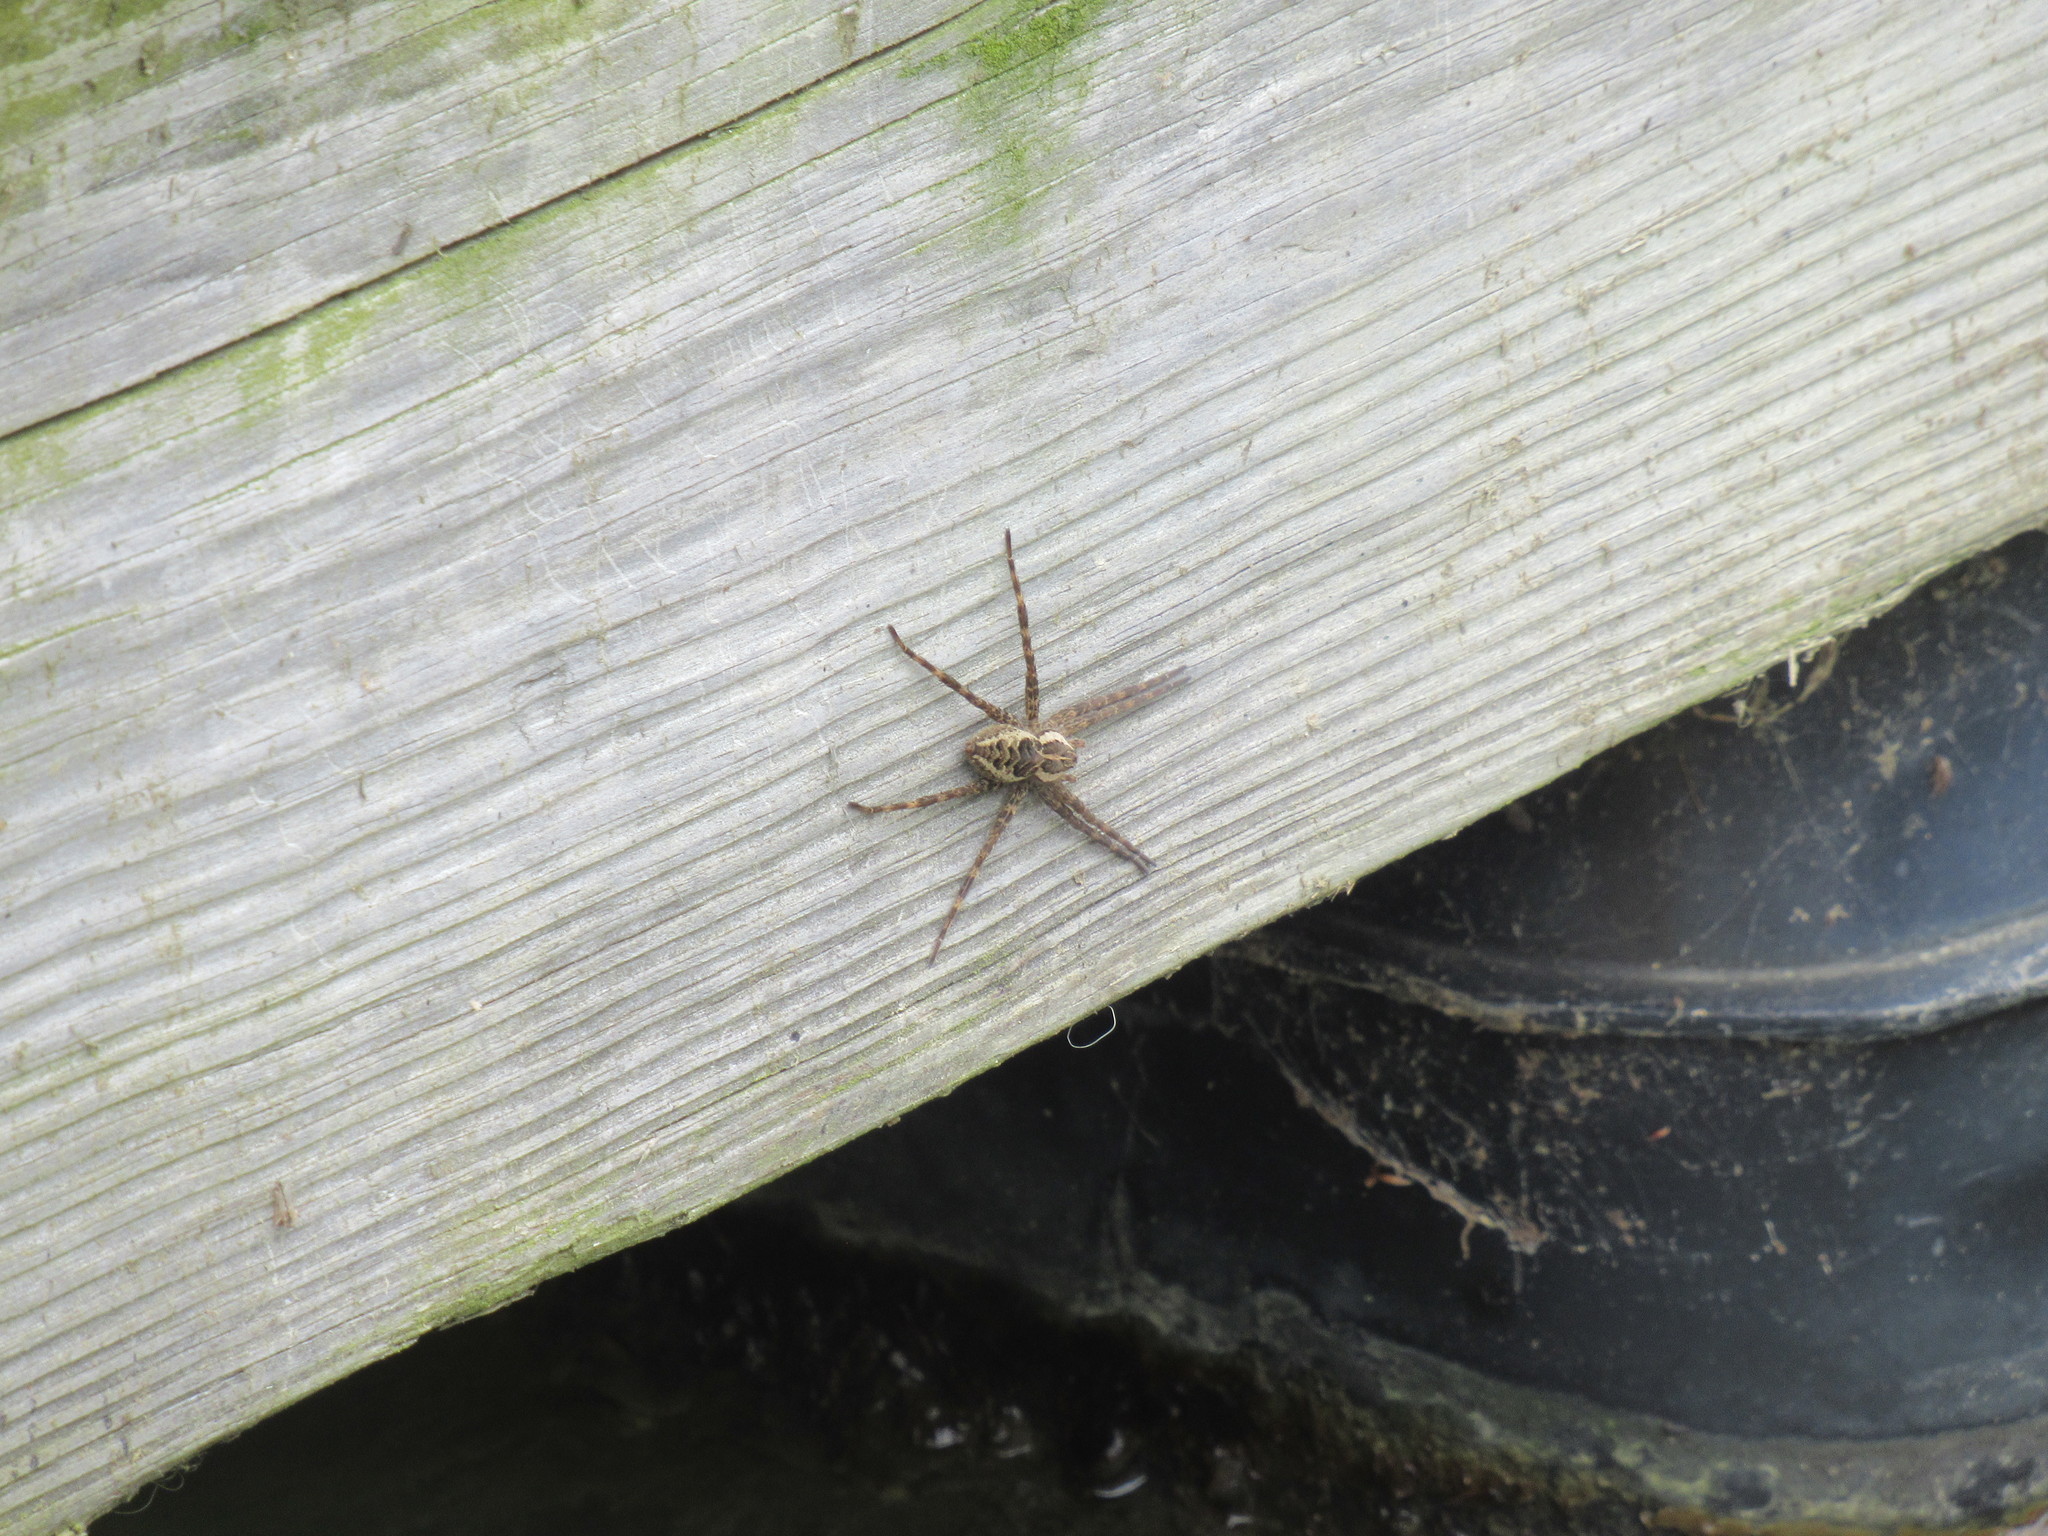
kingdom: Animalia
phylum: Arthropoda
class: Arachnida
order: Araneae
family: Pisauridae
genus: Dolomedes
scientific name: Dolomedes scriptus
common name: Striped fishing spider
